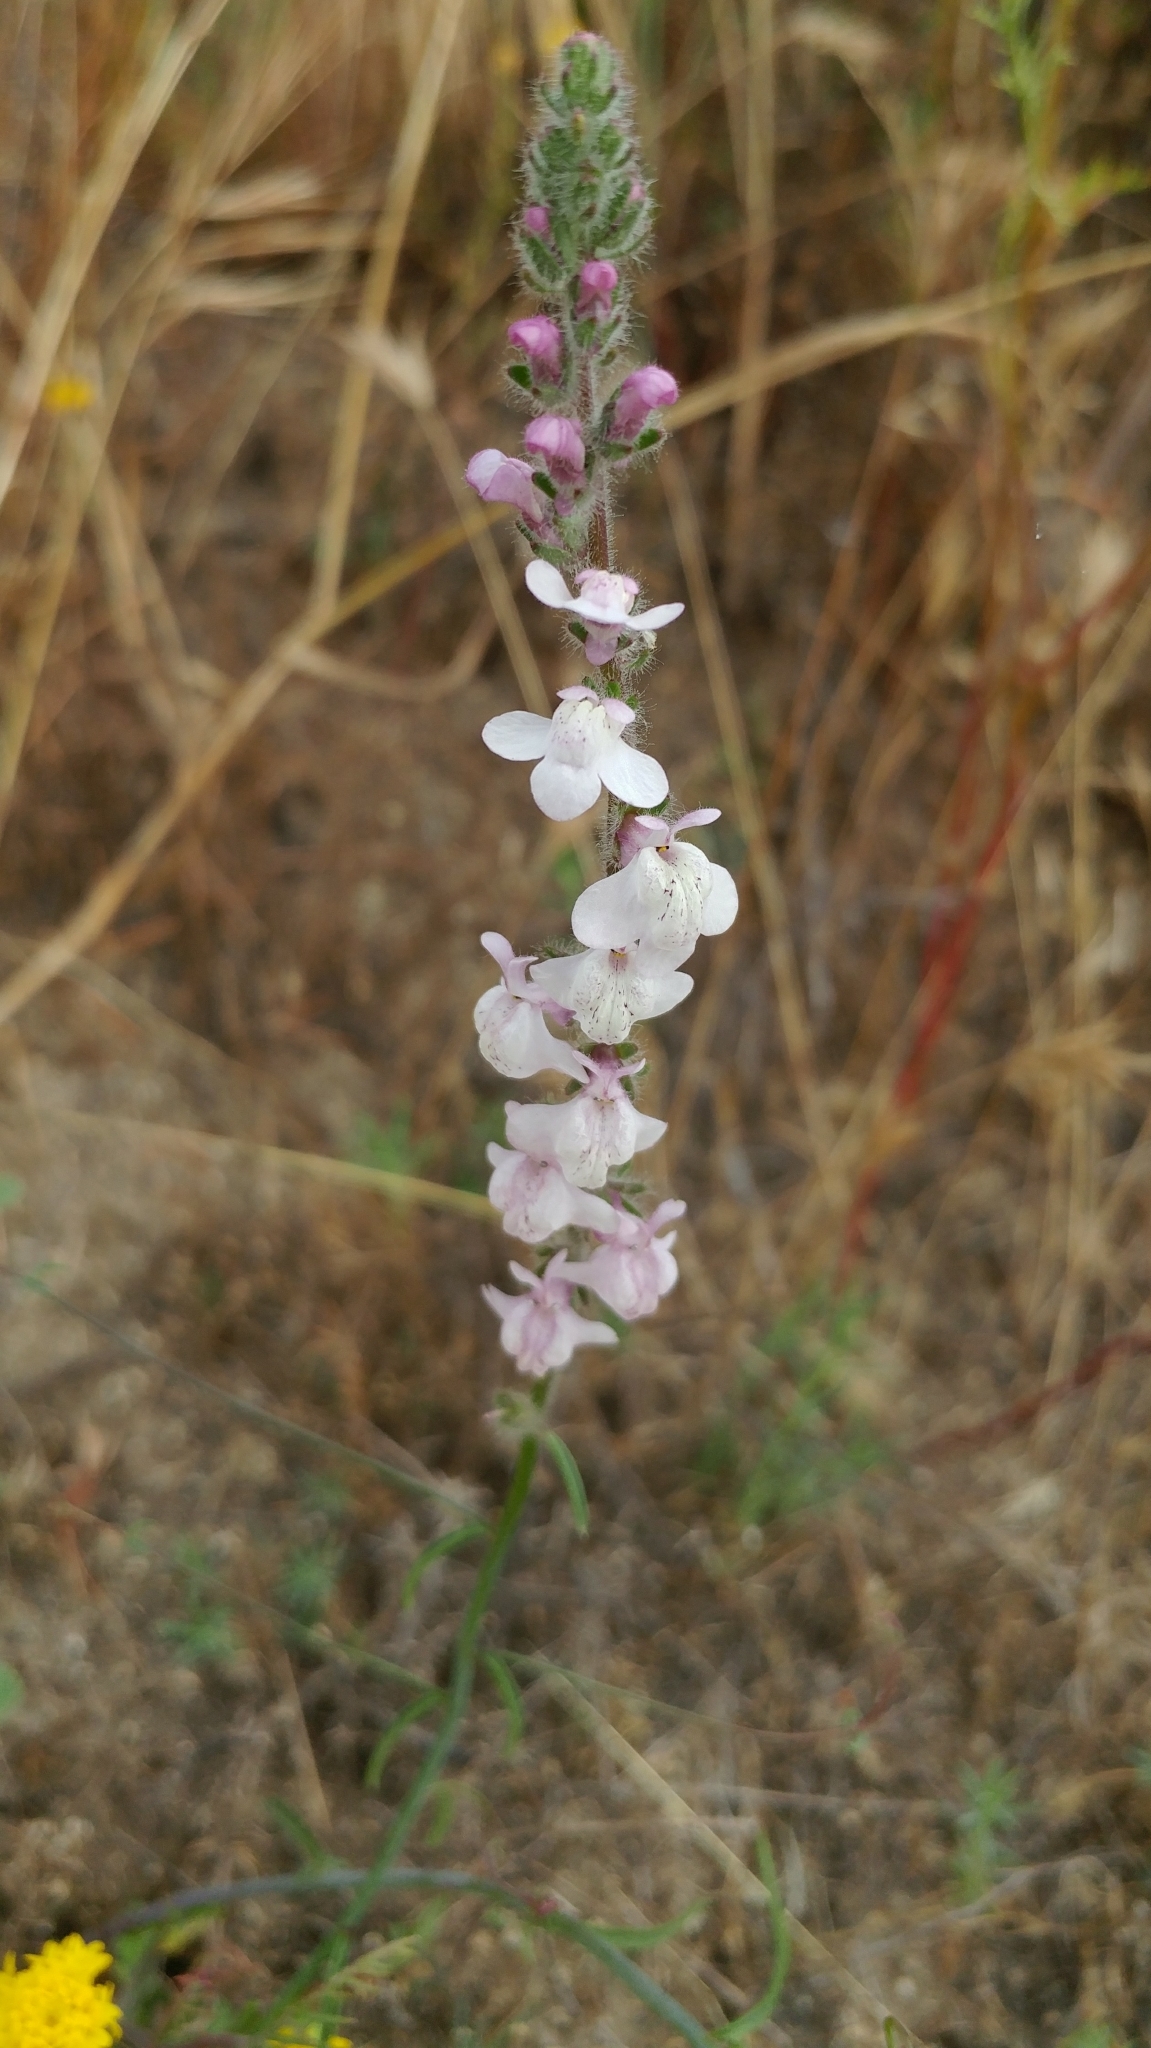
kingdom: Plantae
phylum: Tracheophyta
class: Magnoliopsida
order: Lamiales
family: Plantaginaceae
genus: Sairocarpus
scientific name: Sairocarpus coulterianus
